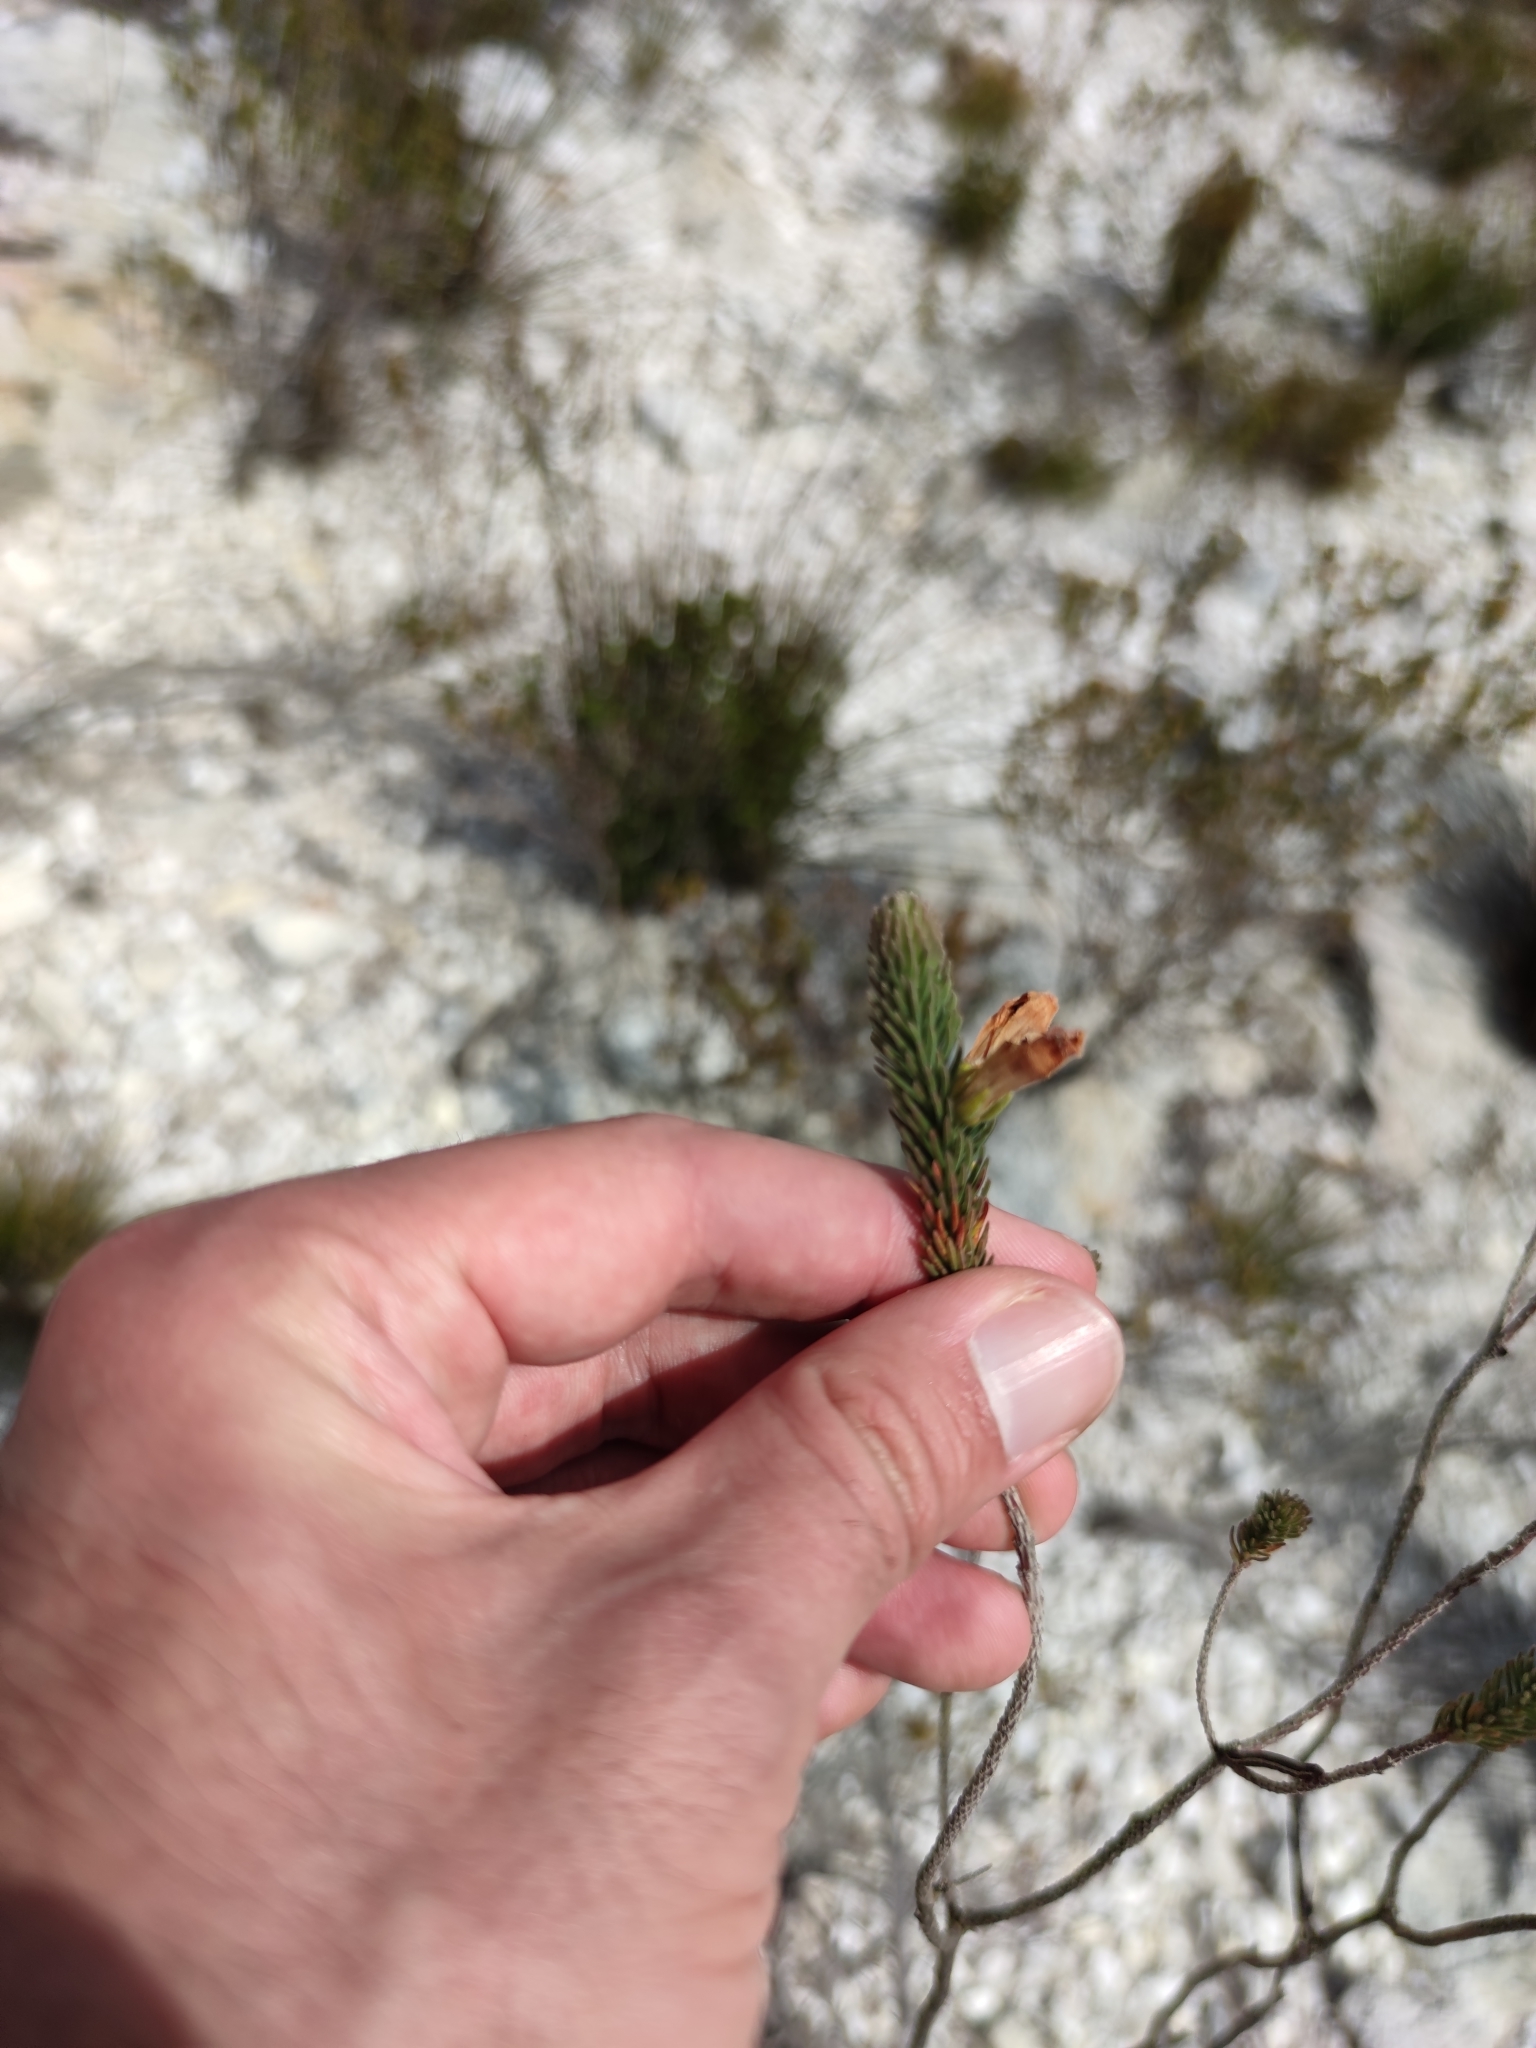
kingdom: Plantae
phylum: Tracheophyta
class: Magnoliopsida
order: Ericales
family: Ericaceae
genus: Erica
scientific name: Erica viscaria
